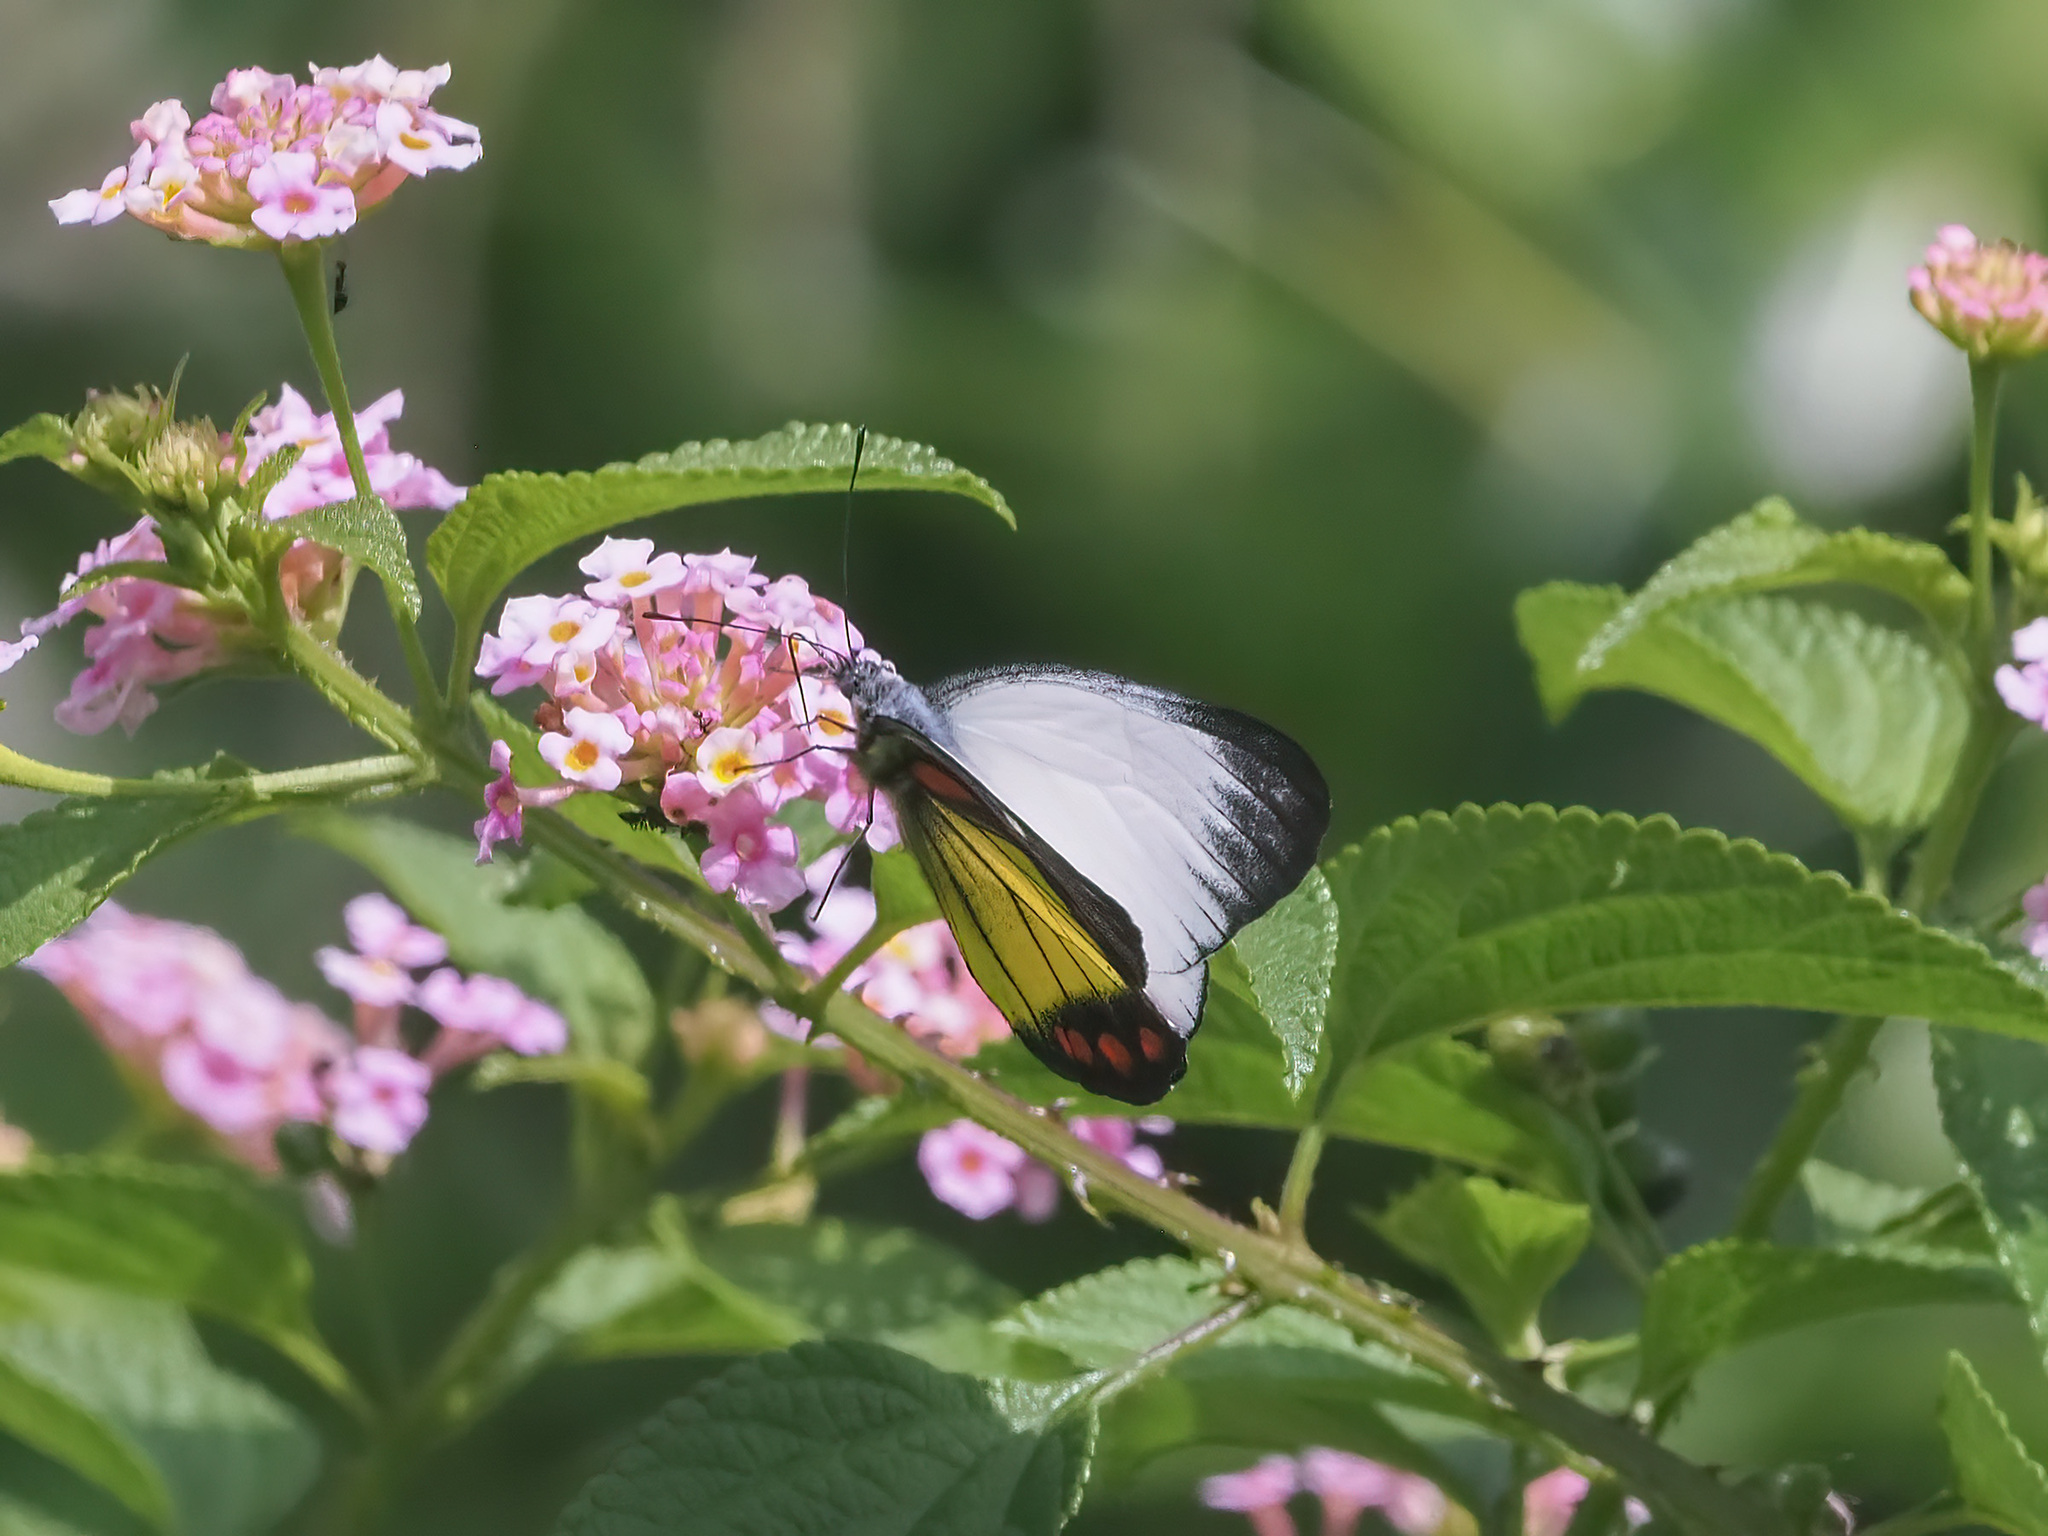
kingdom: Animalia
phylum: Arthropoda
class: Insecta
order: Lepidoptera
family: Pieridae
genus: Delias
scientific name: Delias eumolpe
